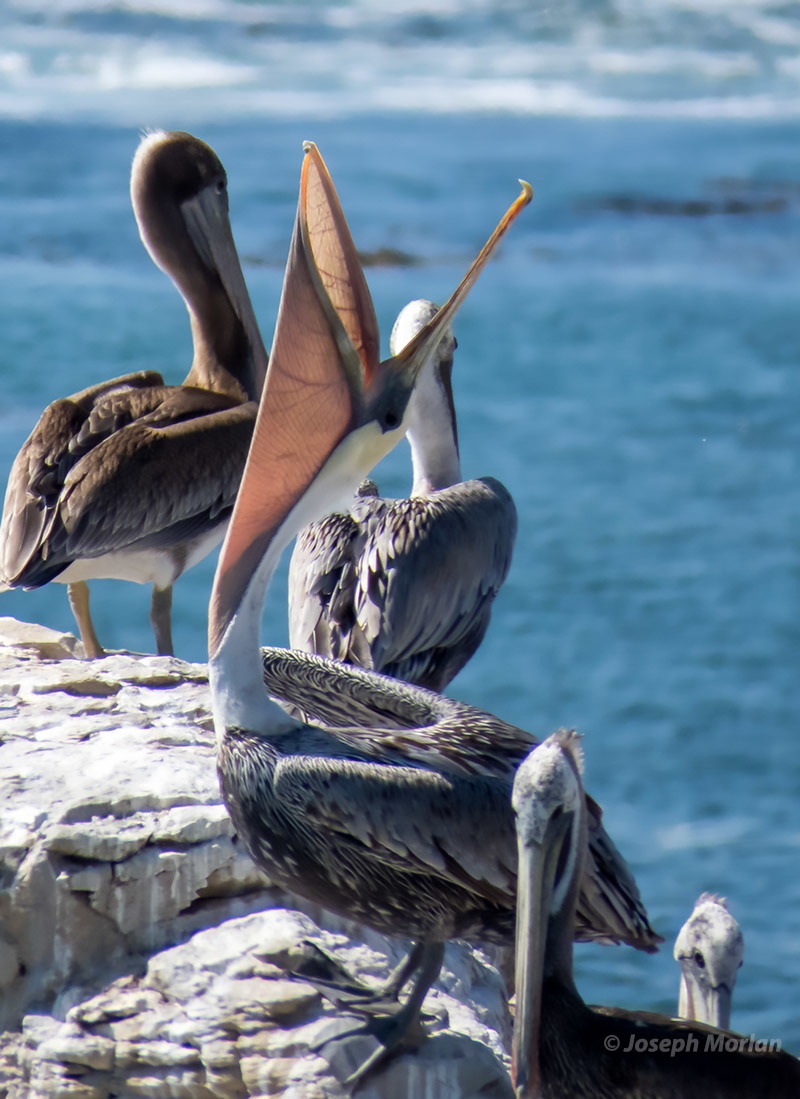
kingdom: Animalia
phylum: Chordata
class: Aves
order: Pelecaniformes
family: Pelecanidae
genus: Pelecanus
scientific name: Pelecanus occidentalis
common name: Brown pelican
